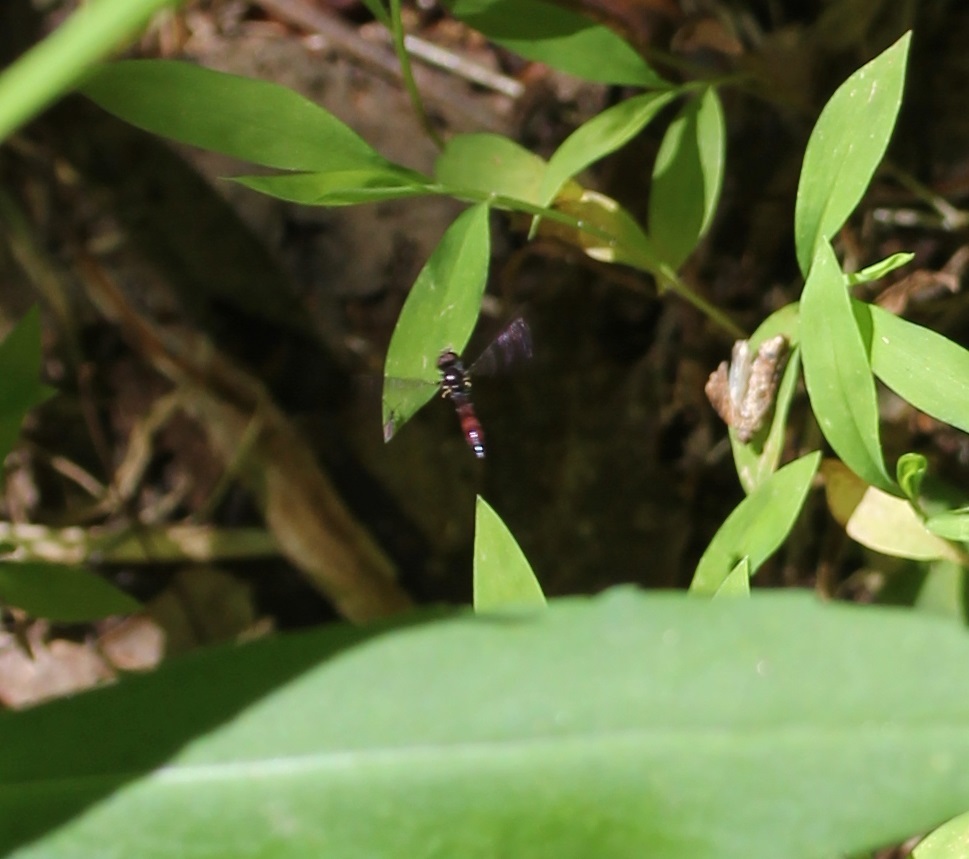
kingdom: Animalia
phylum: Arthropoda
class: Insecta
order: Diptera
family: Syrphidae
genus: Ocyptamus
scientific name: Ocyptamus fuscipennis
